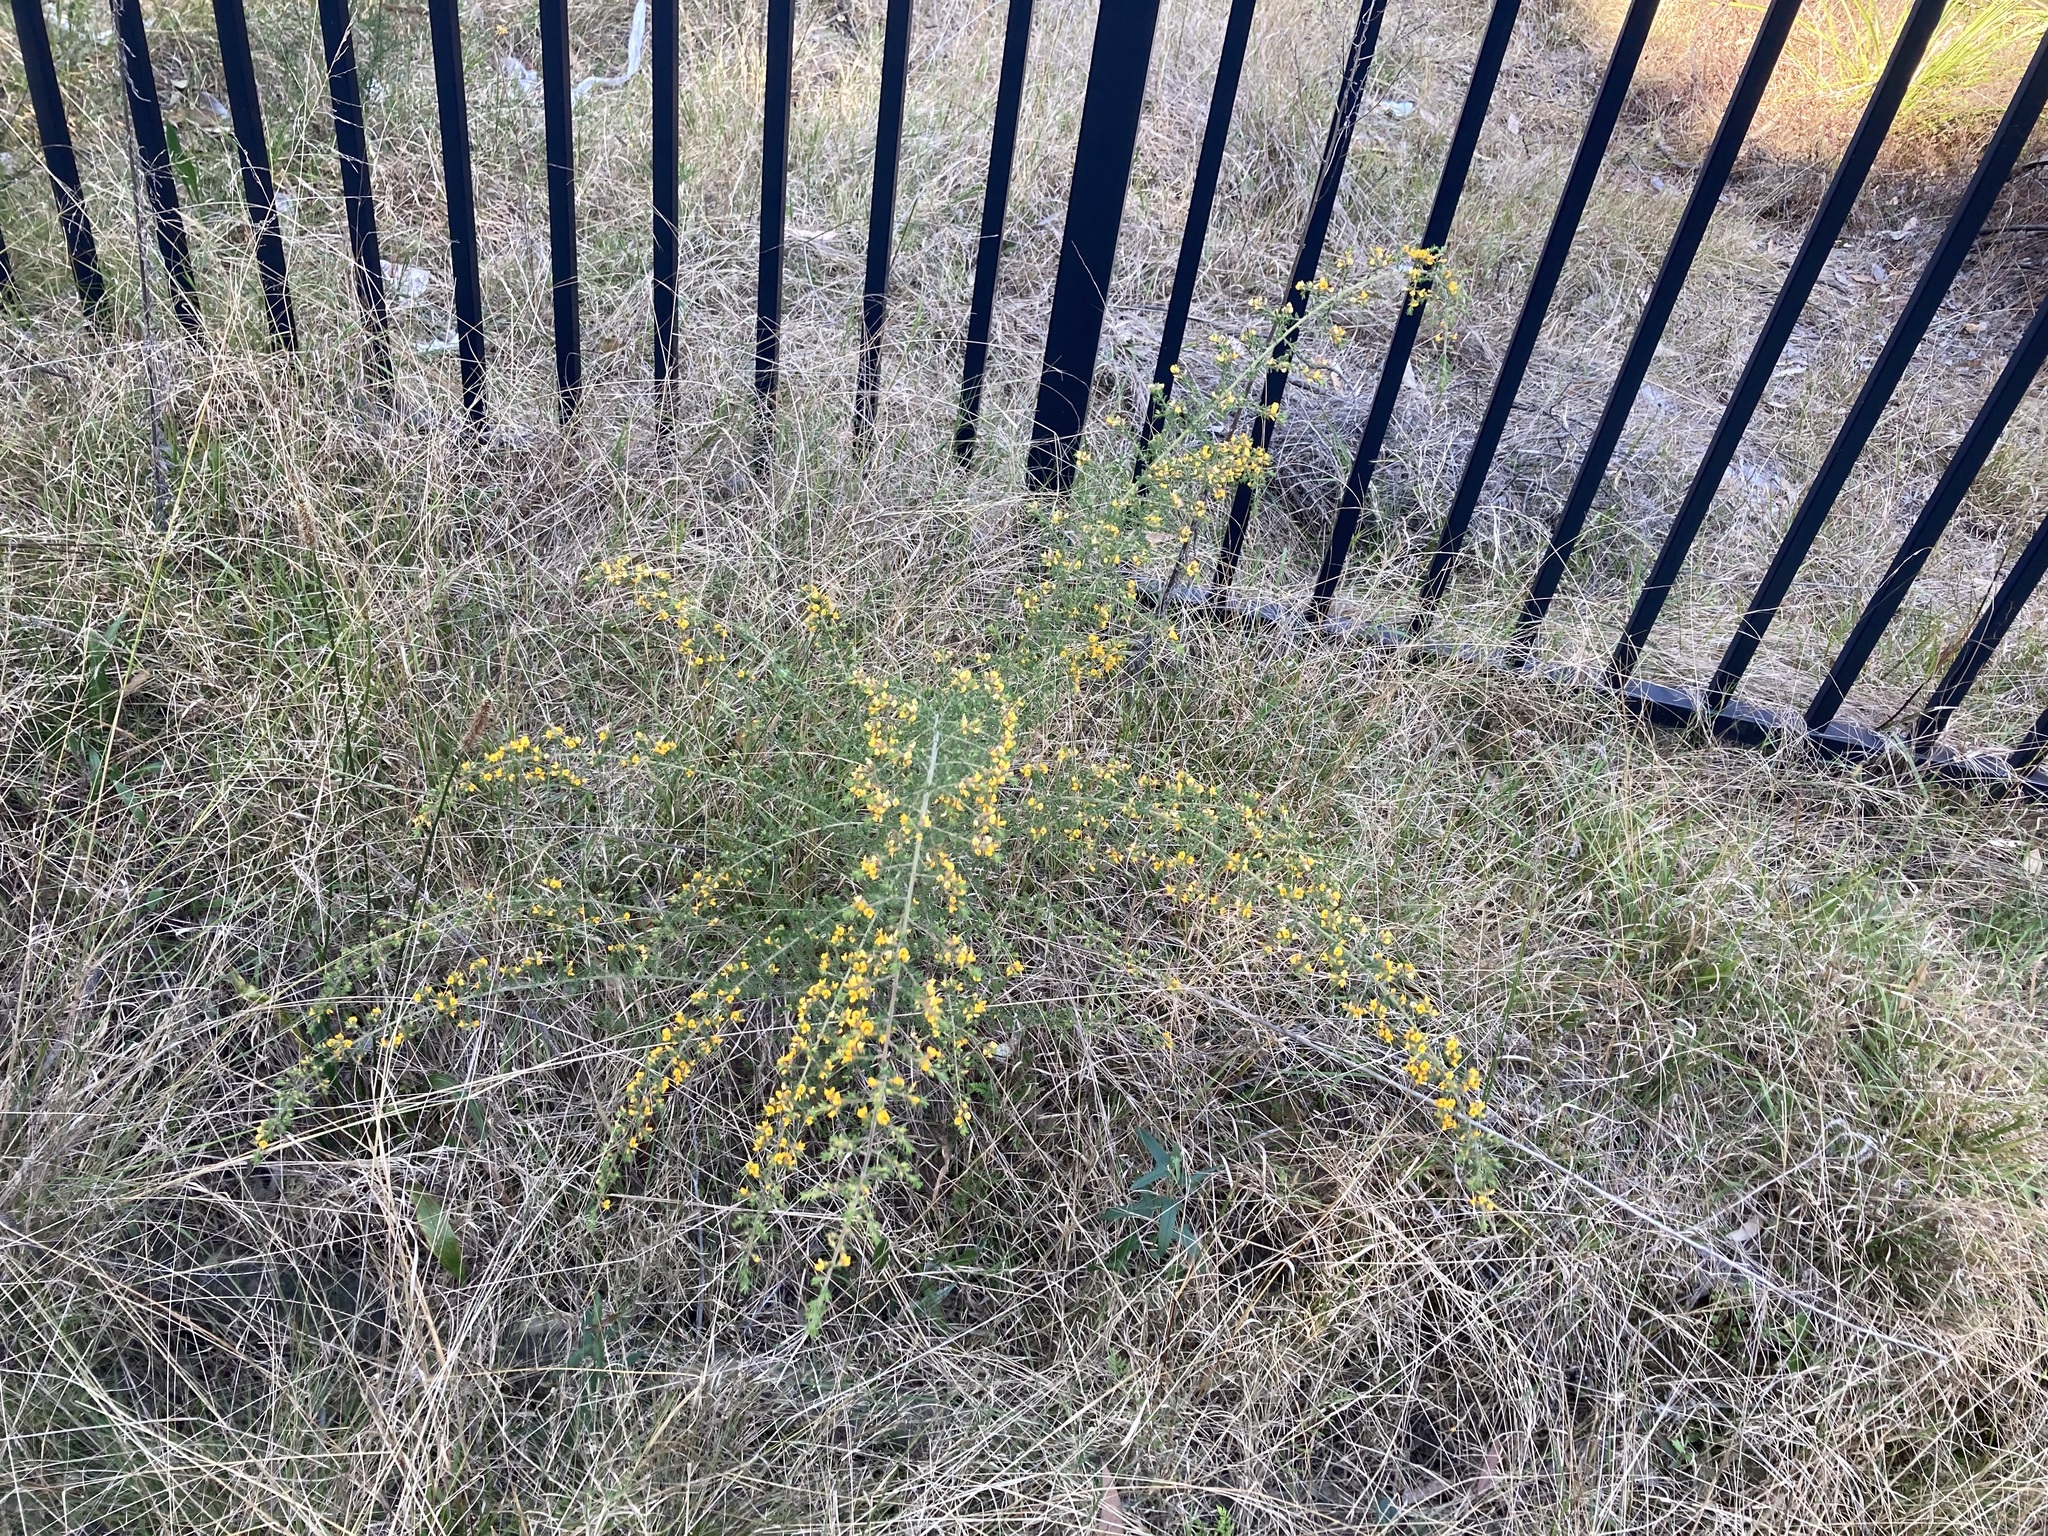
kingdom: Plantae
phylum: Tracheophyta
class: Magnoliopsida
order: Fabales
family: Fabaceae
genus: Pultenaea
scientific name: Pultenaea villosa
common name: Bronze bush-pea
